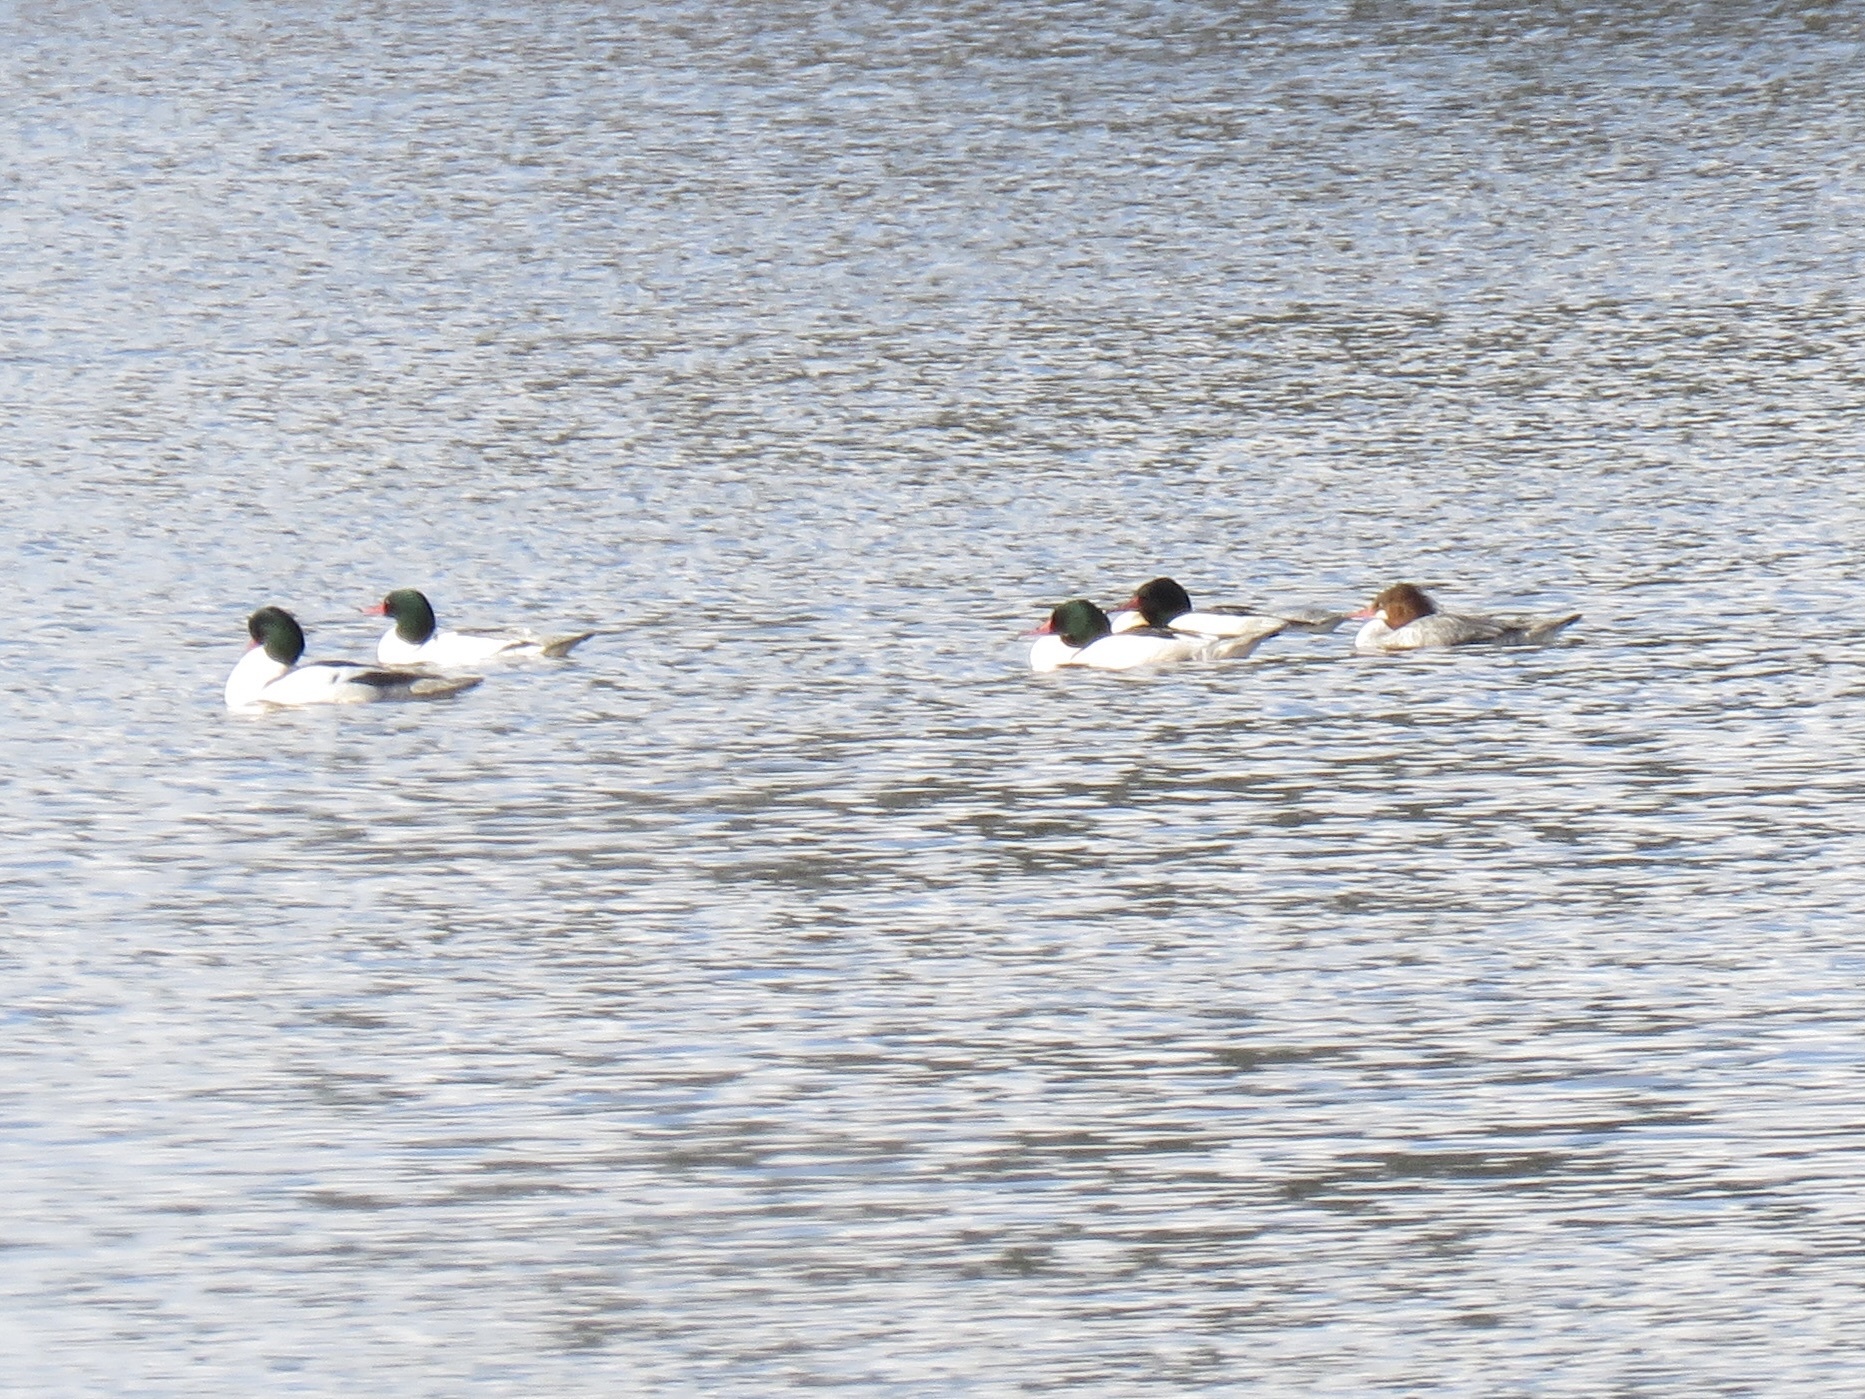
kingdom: Animalia
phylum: Chordata
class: Aves
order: Anseriformes
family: Anatidae
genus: Mergus
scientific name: Mergus merganser
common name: Common merganser
